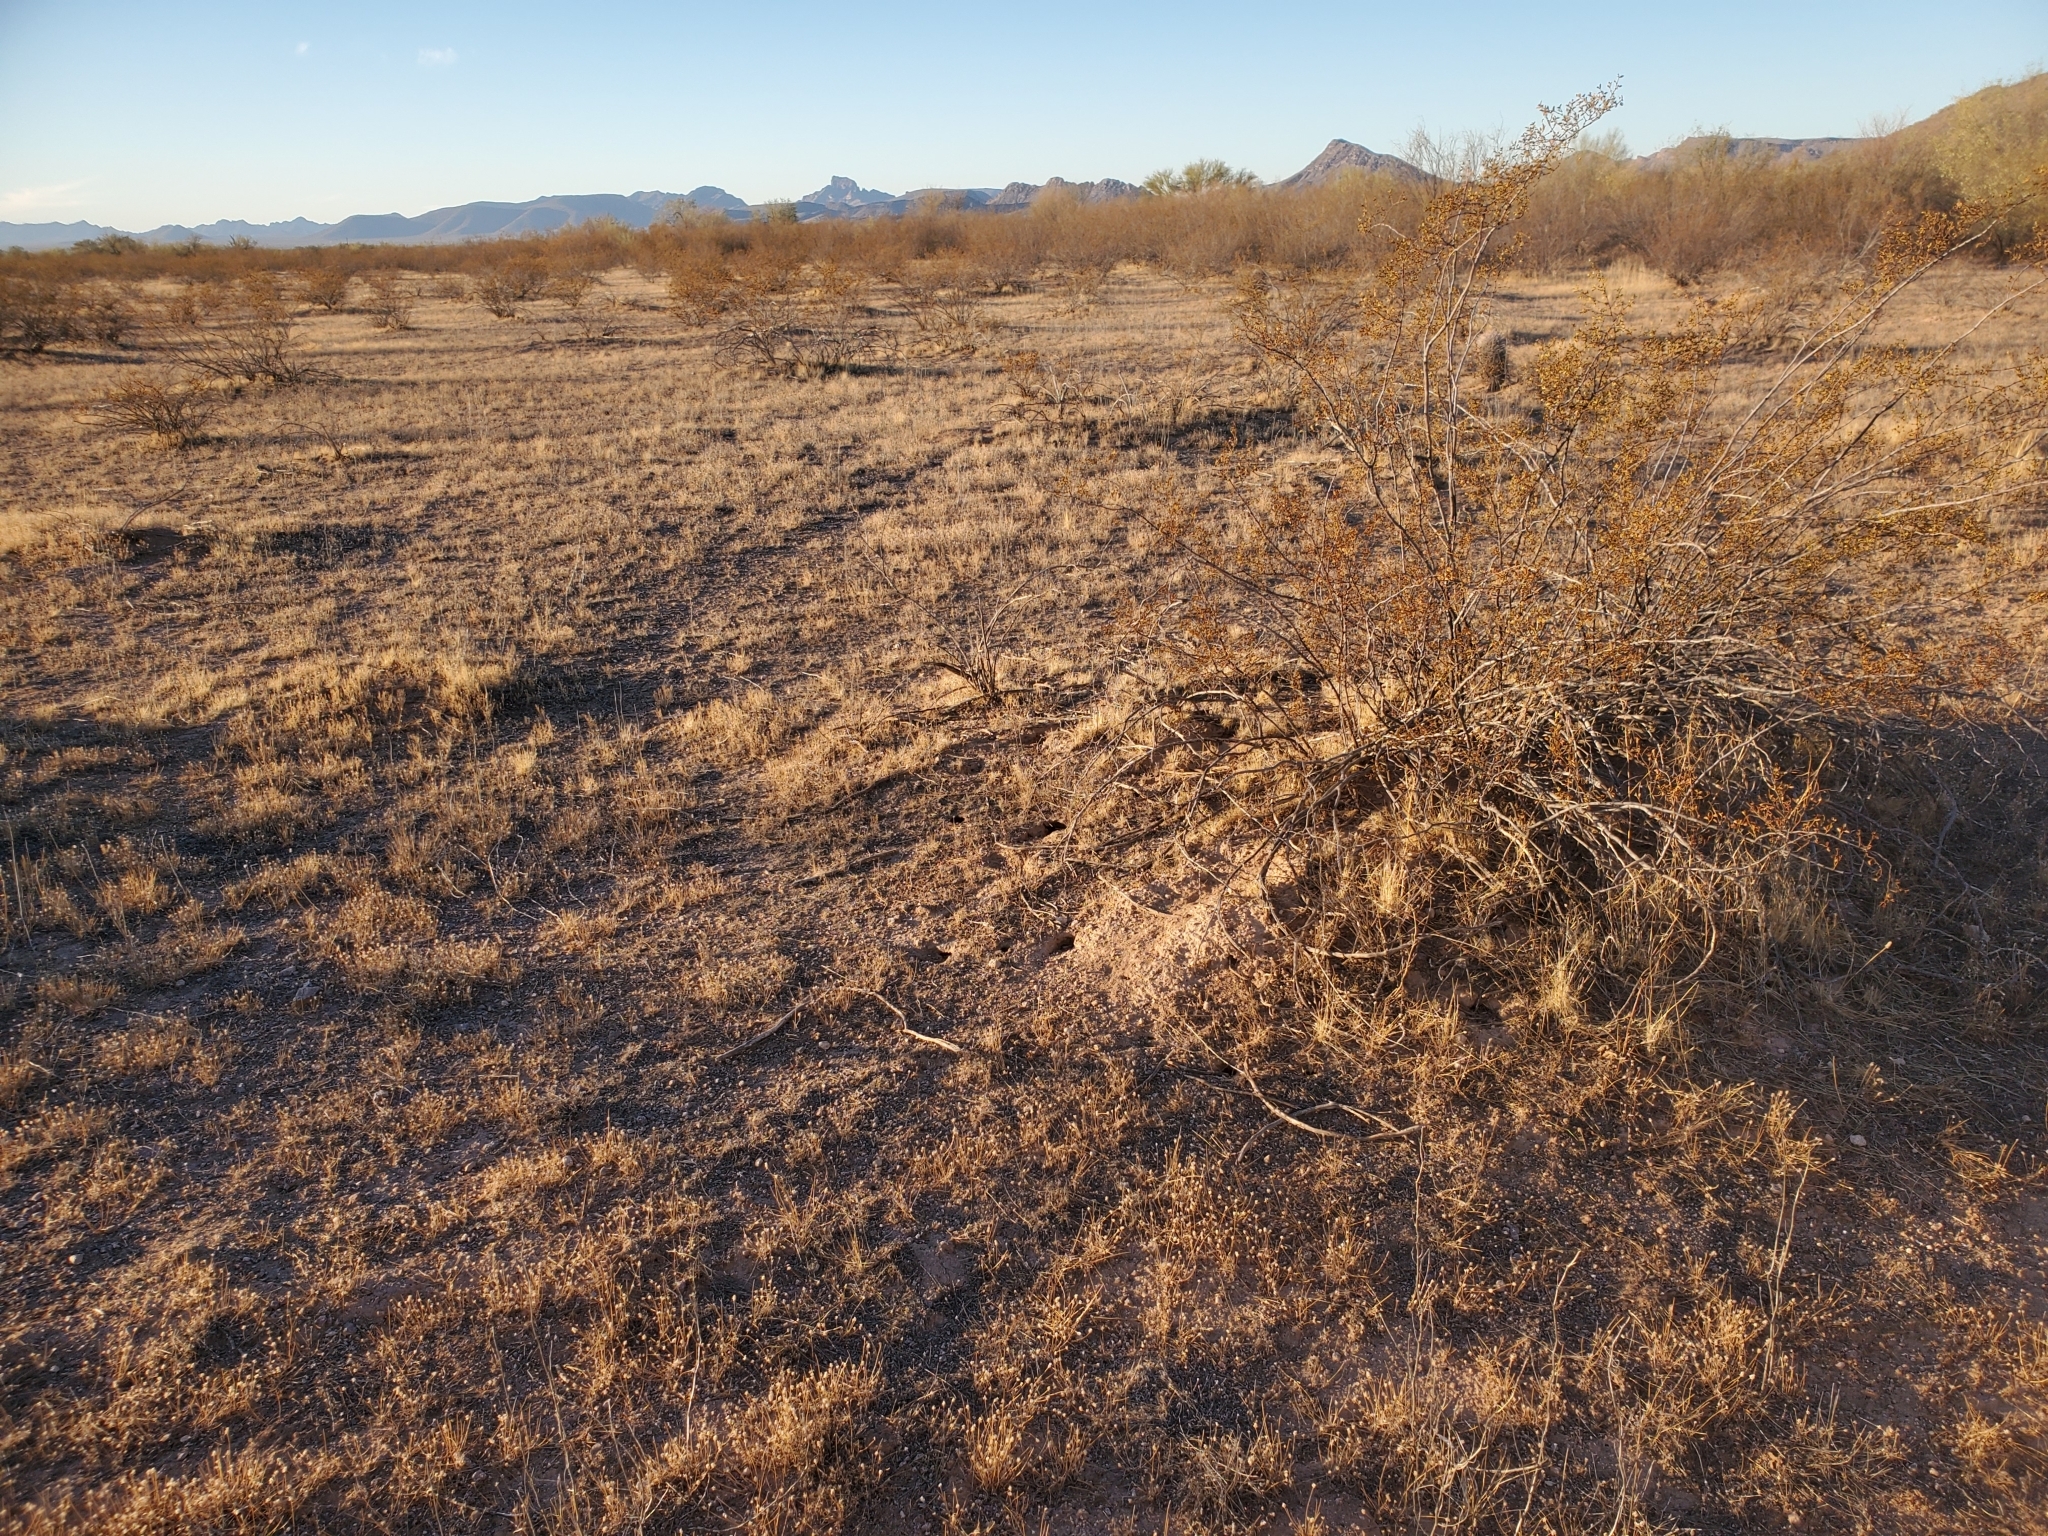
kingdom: Plantae
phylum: Tracheophyta
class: Magnoliopsida
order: Zygophyllales
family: Zygophyllaceae
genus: Larrea
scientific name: Larrea tridentata
